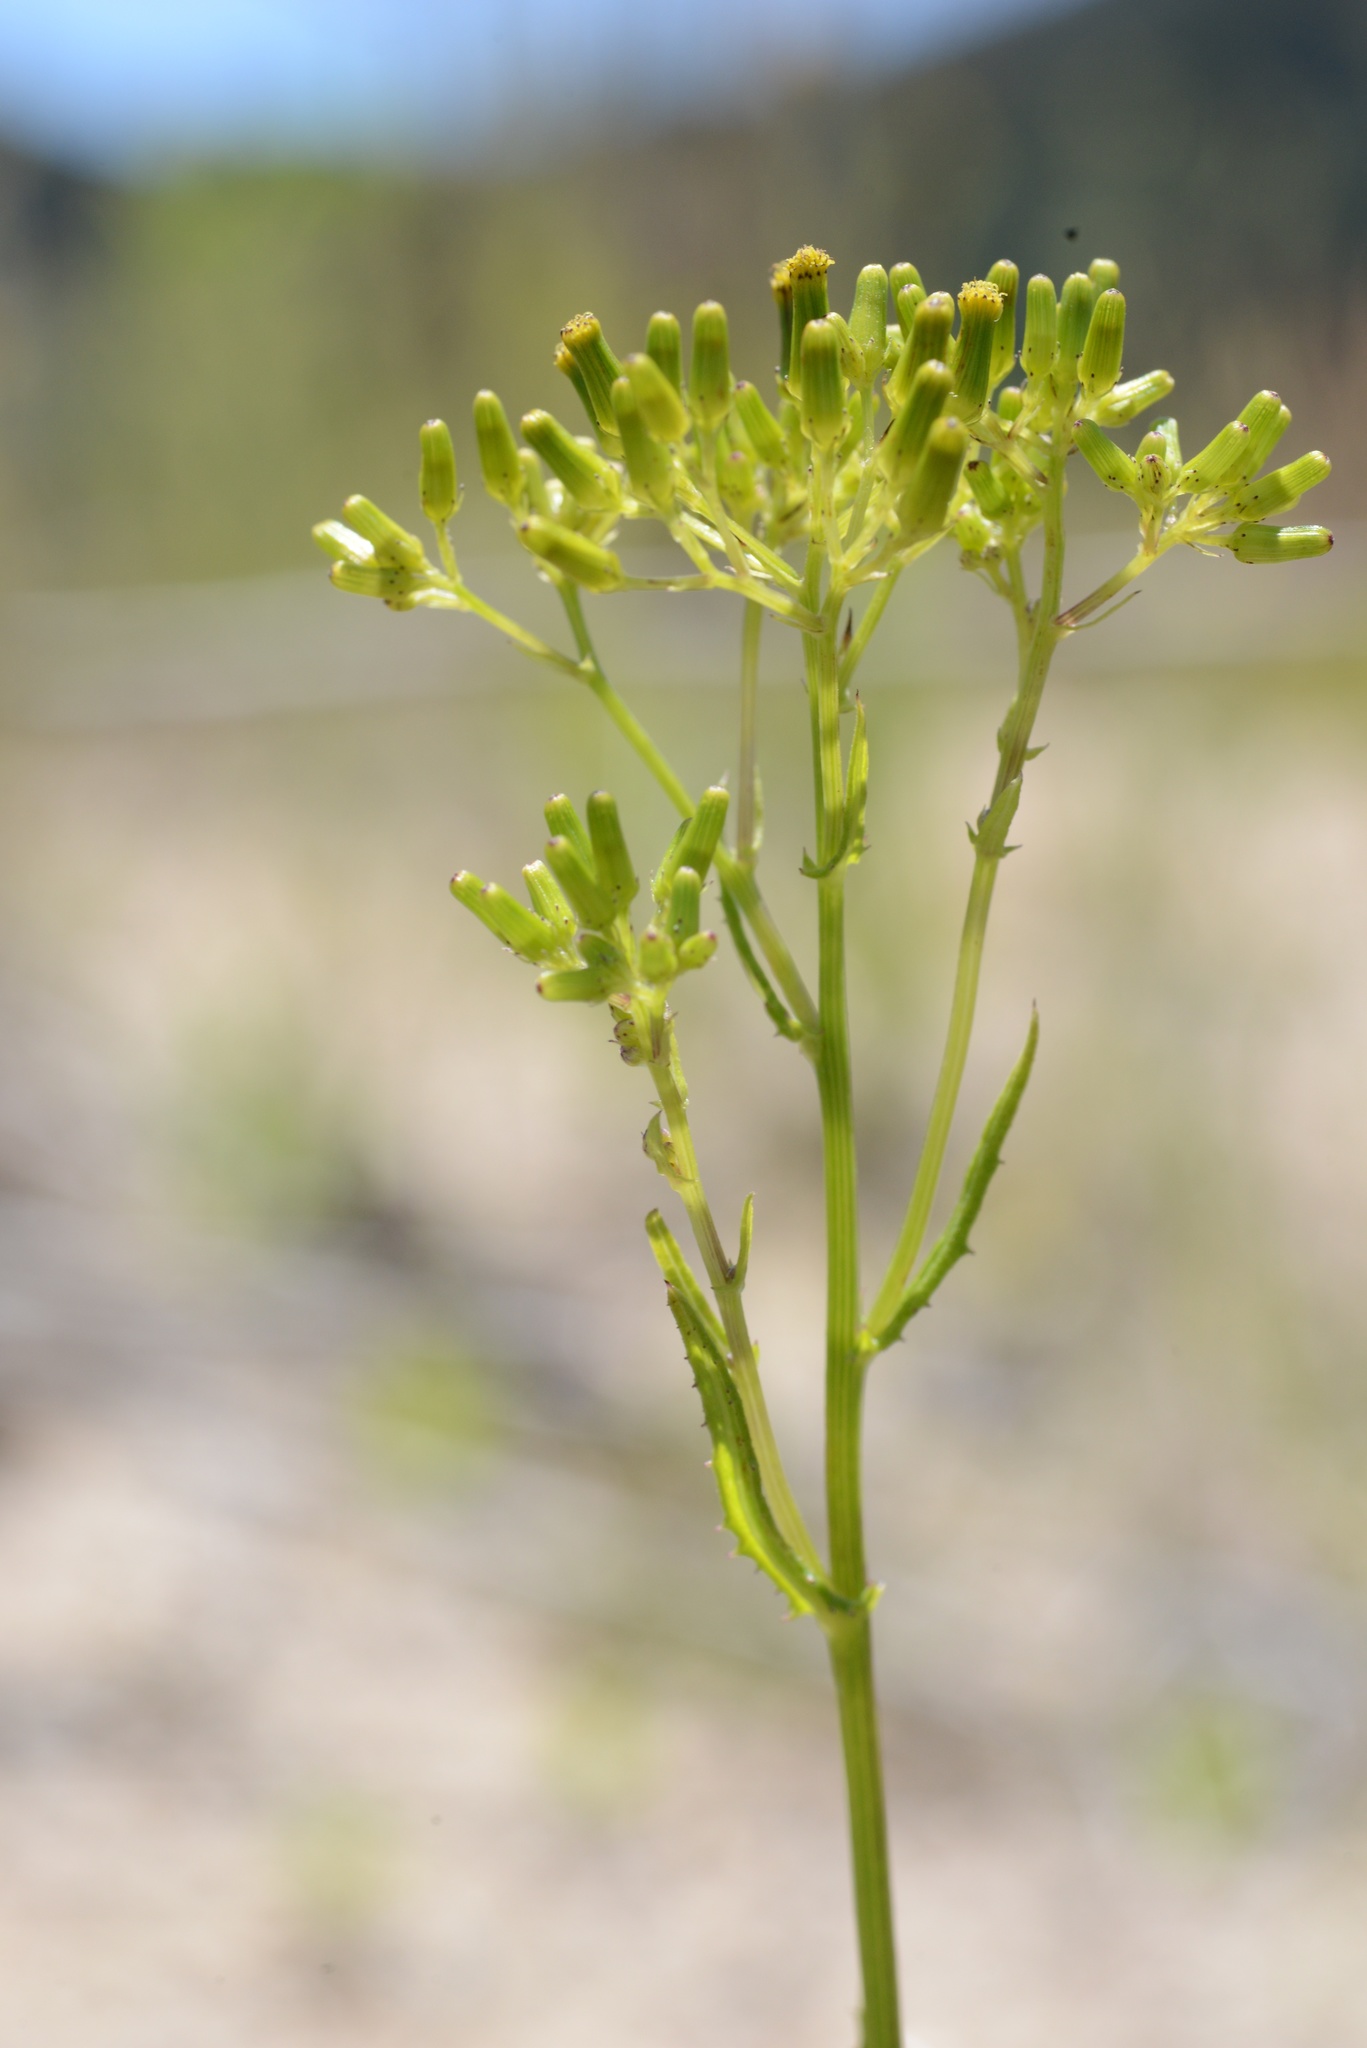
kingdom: Plantae
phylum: Tracheophyta
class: Magnoliopsida
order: Asterales
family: Asteraceae
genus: Senecio
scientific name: Senecio hispidulus
